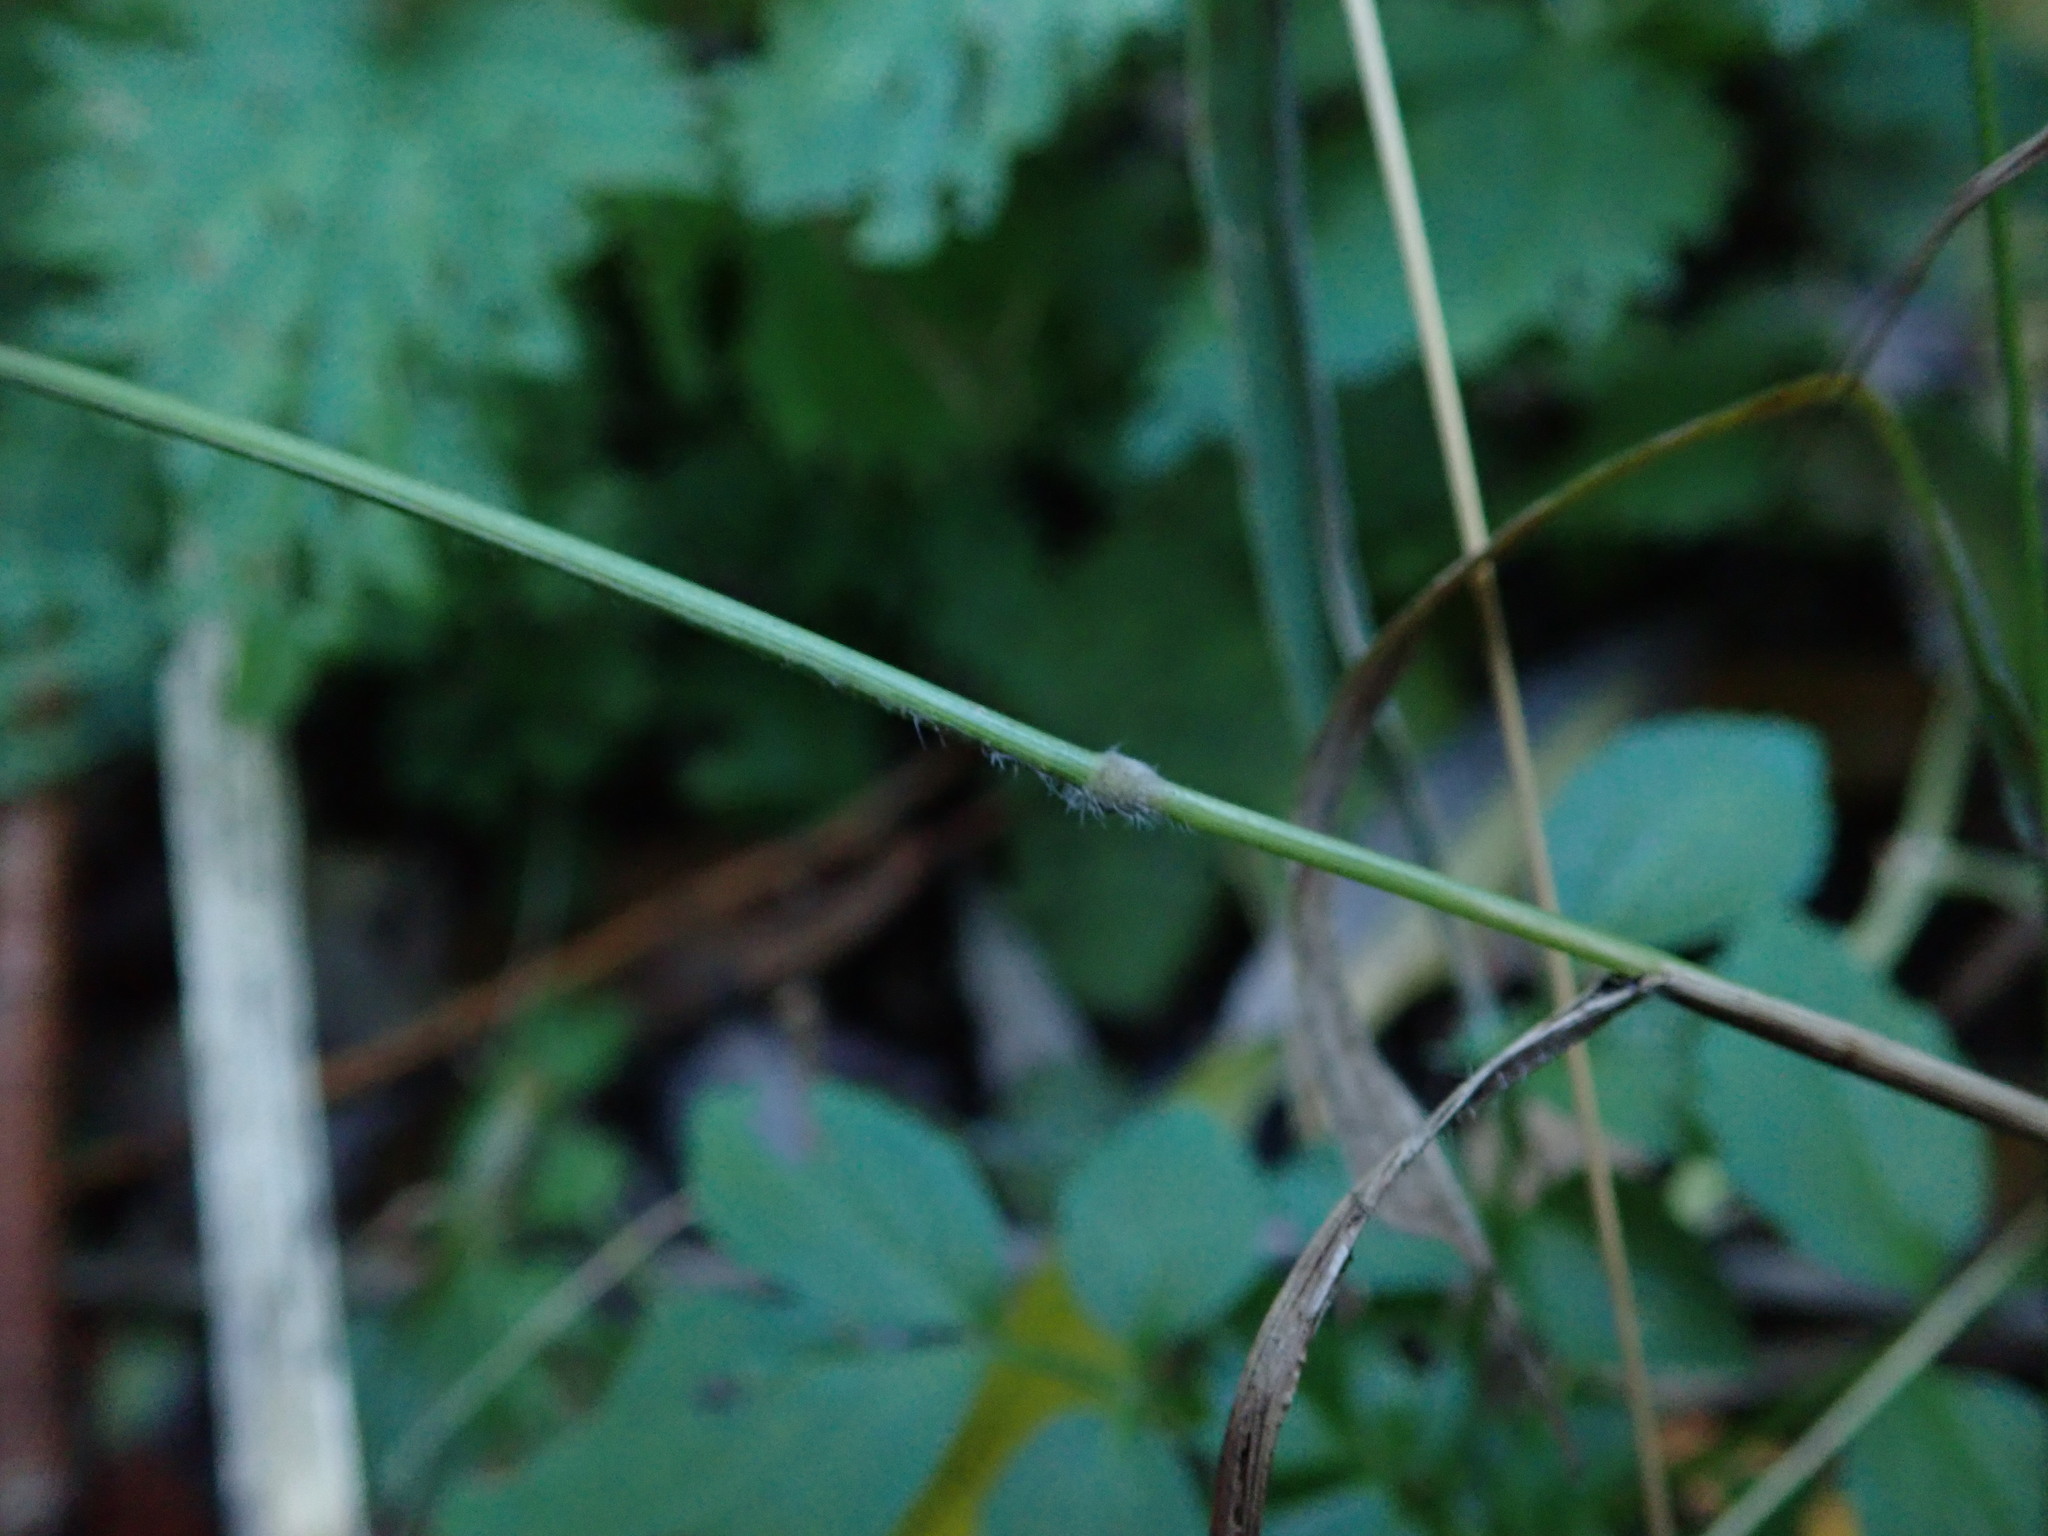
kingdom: Plantae
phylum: Tracheophyta
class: Liliopsida
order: Poales
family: Poaceae
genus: Brachypodium
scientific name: Brachypodium sylvaticum
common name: False-brome
